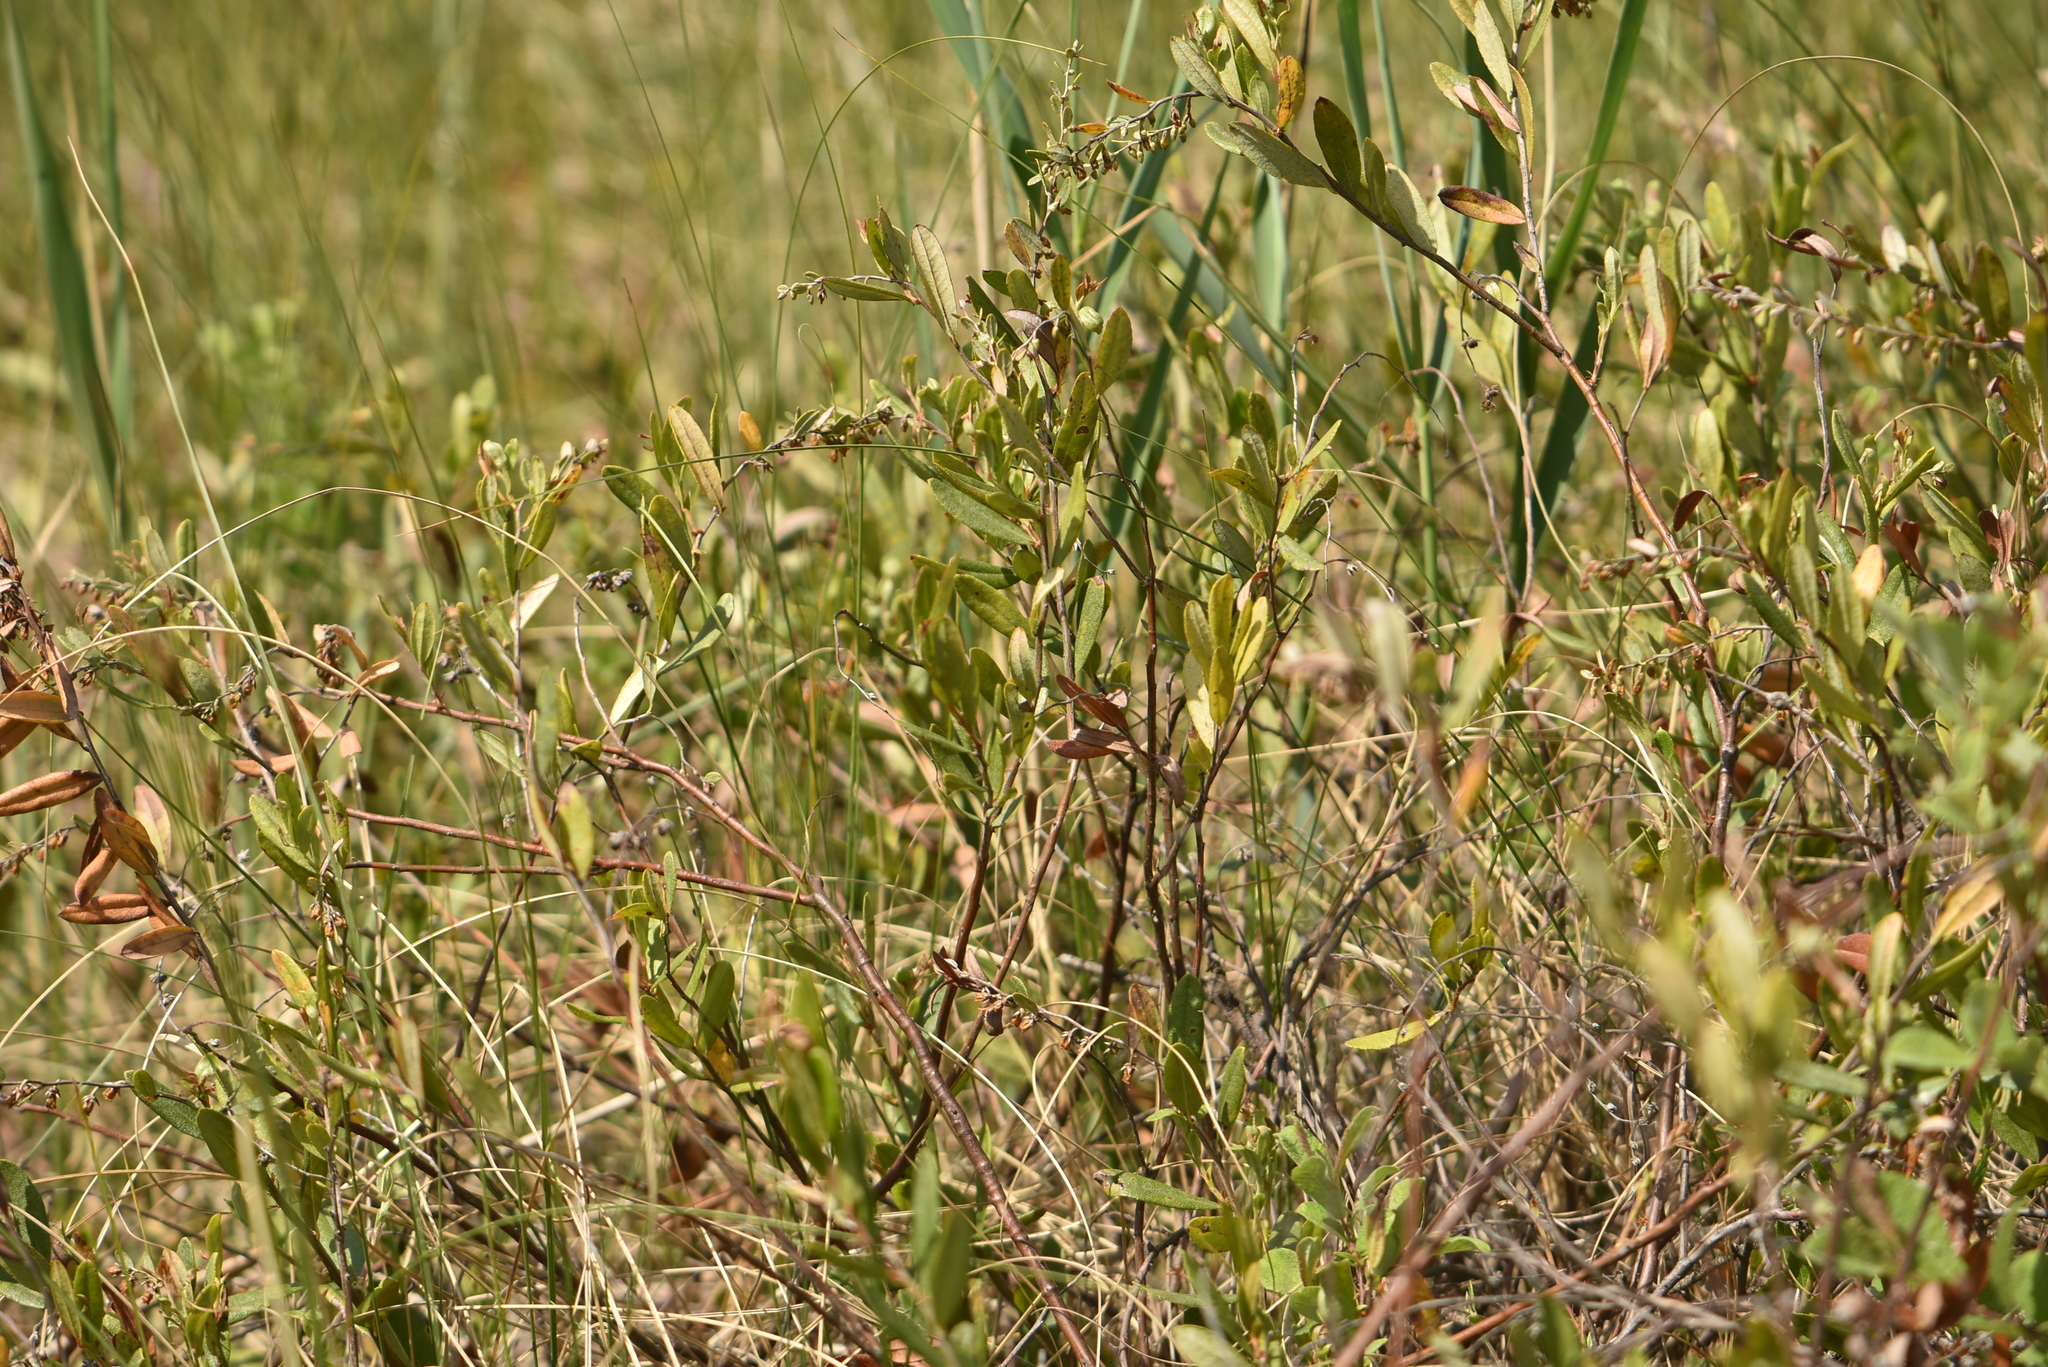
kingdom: Plantae
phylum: Tracheophyta
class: Magnoliopsida
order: Ericales
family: Ericaceae
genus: Chamaedaphne
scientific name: Chamaedaphne calyculata
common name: Leatherleaf
